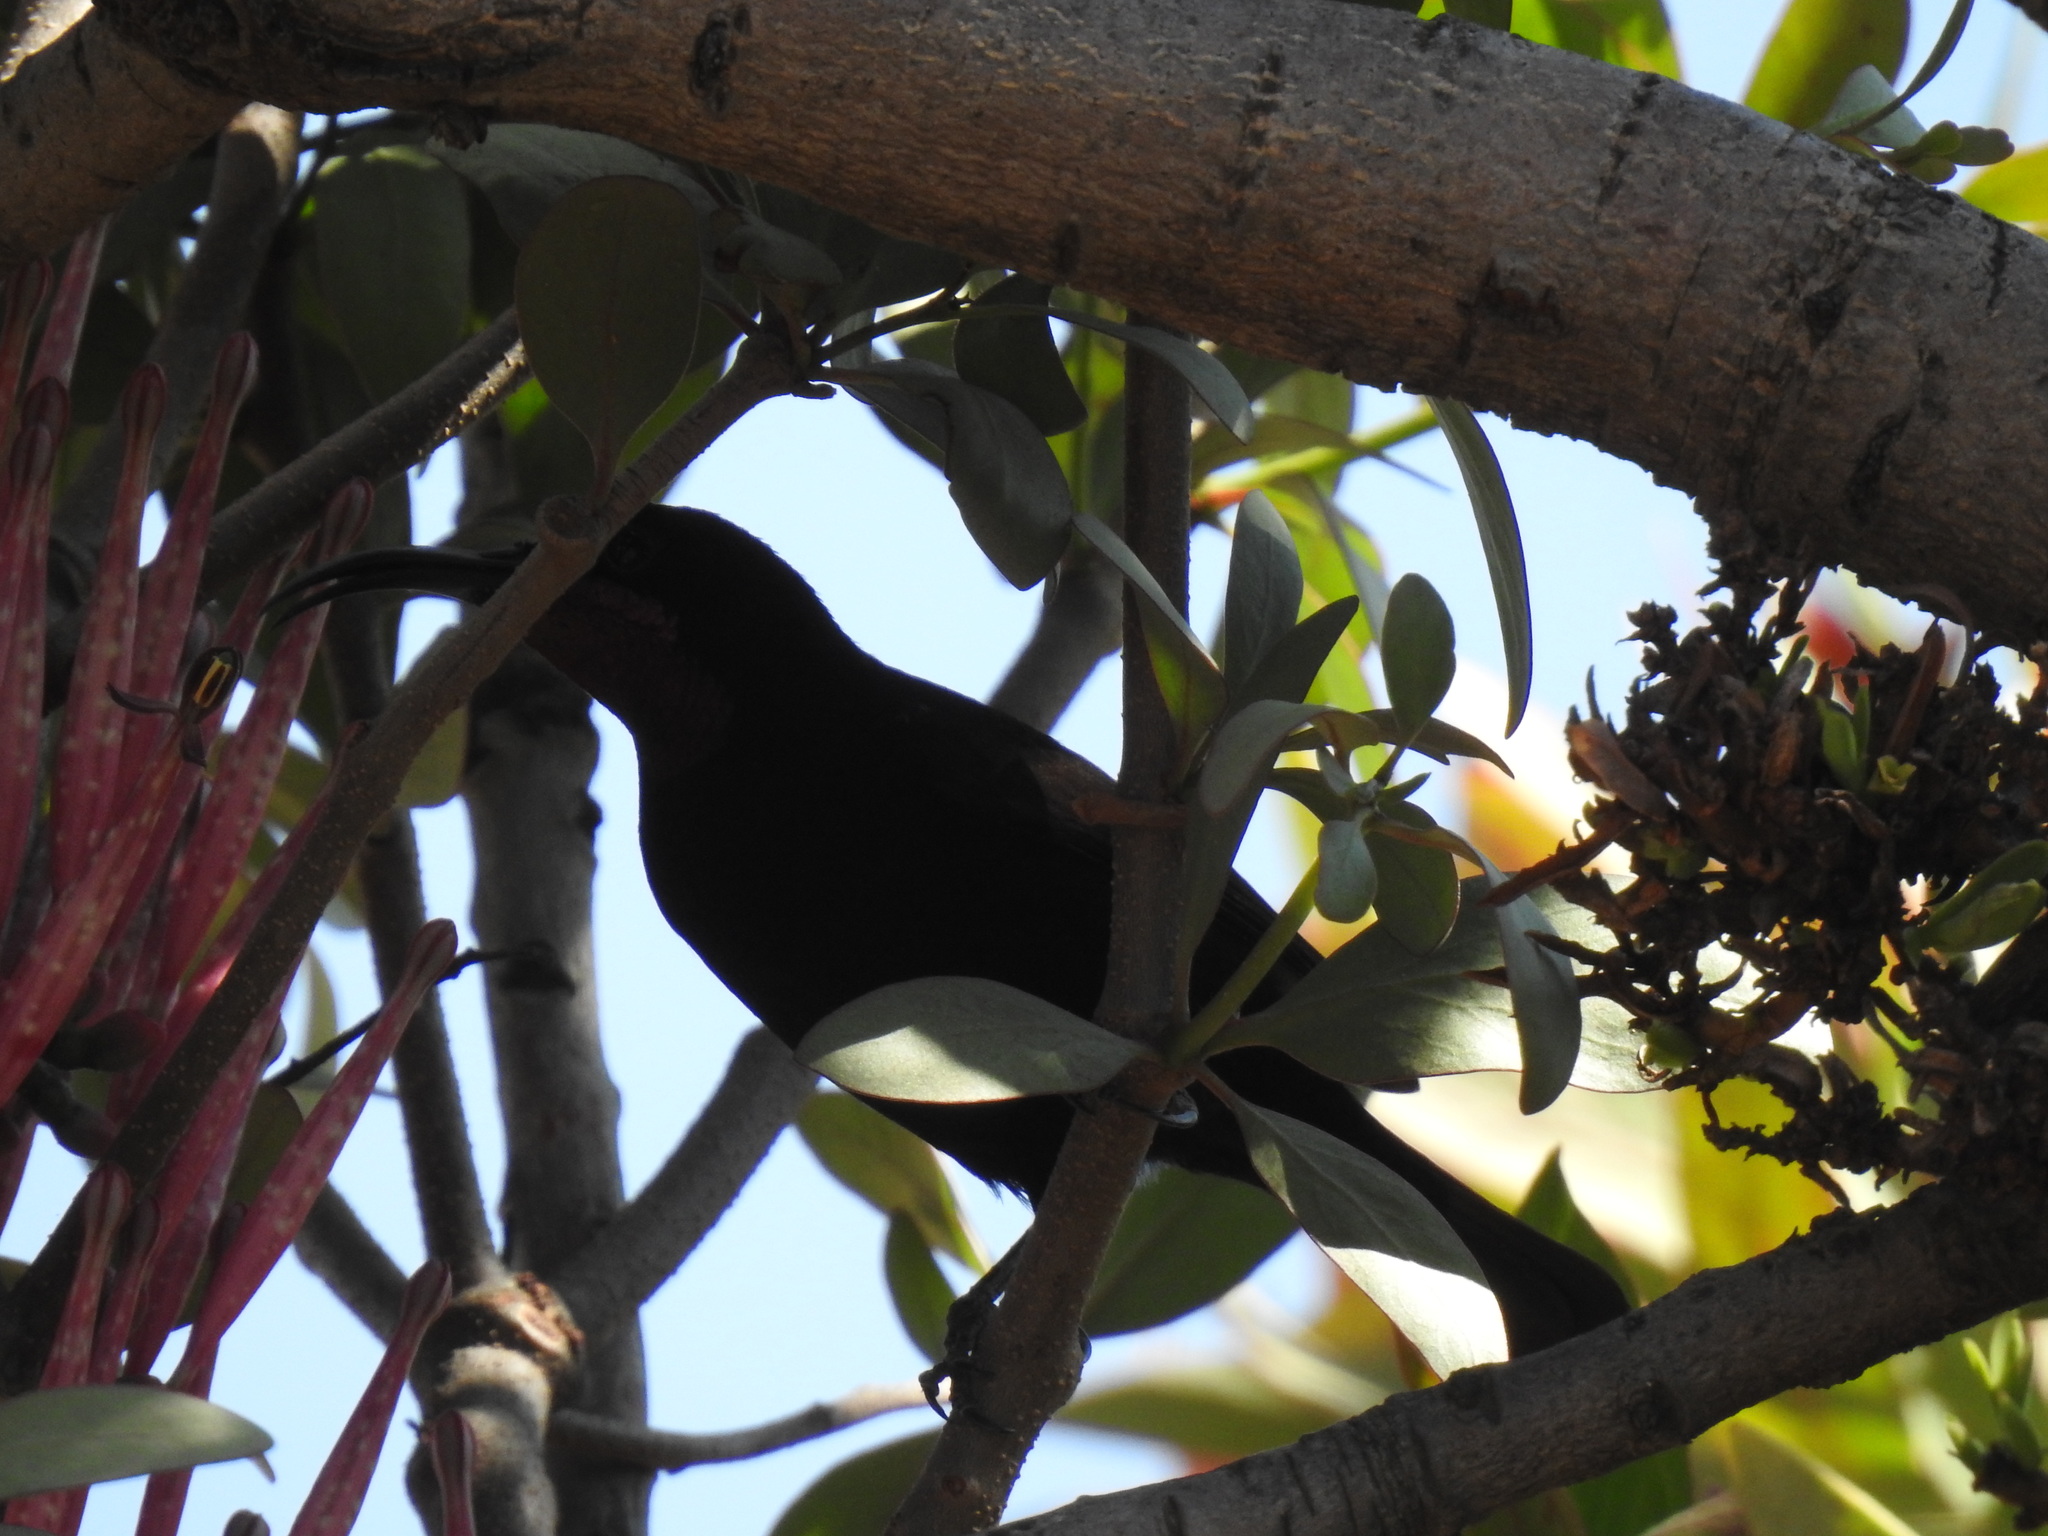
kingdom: Animalia
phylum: Chordata
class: Aves
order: Passeriformes
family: Nectariniidae
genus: Chalcomitra
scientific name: Chalcomitra amethystina
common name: Amethyst sunbird
